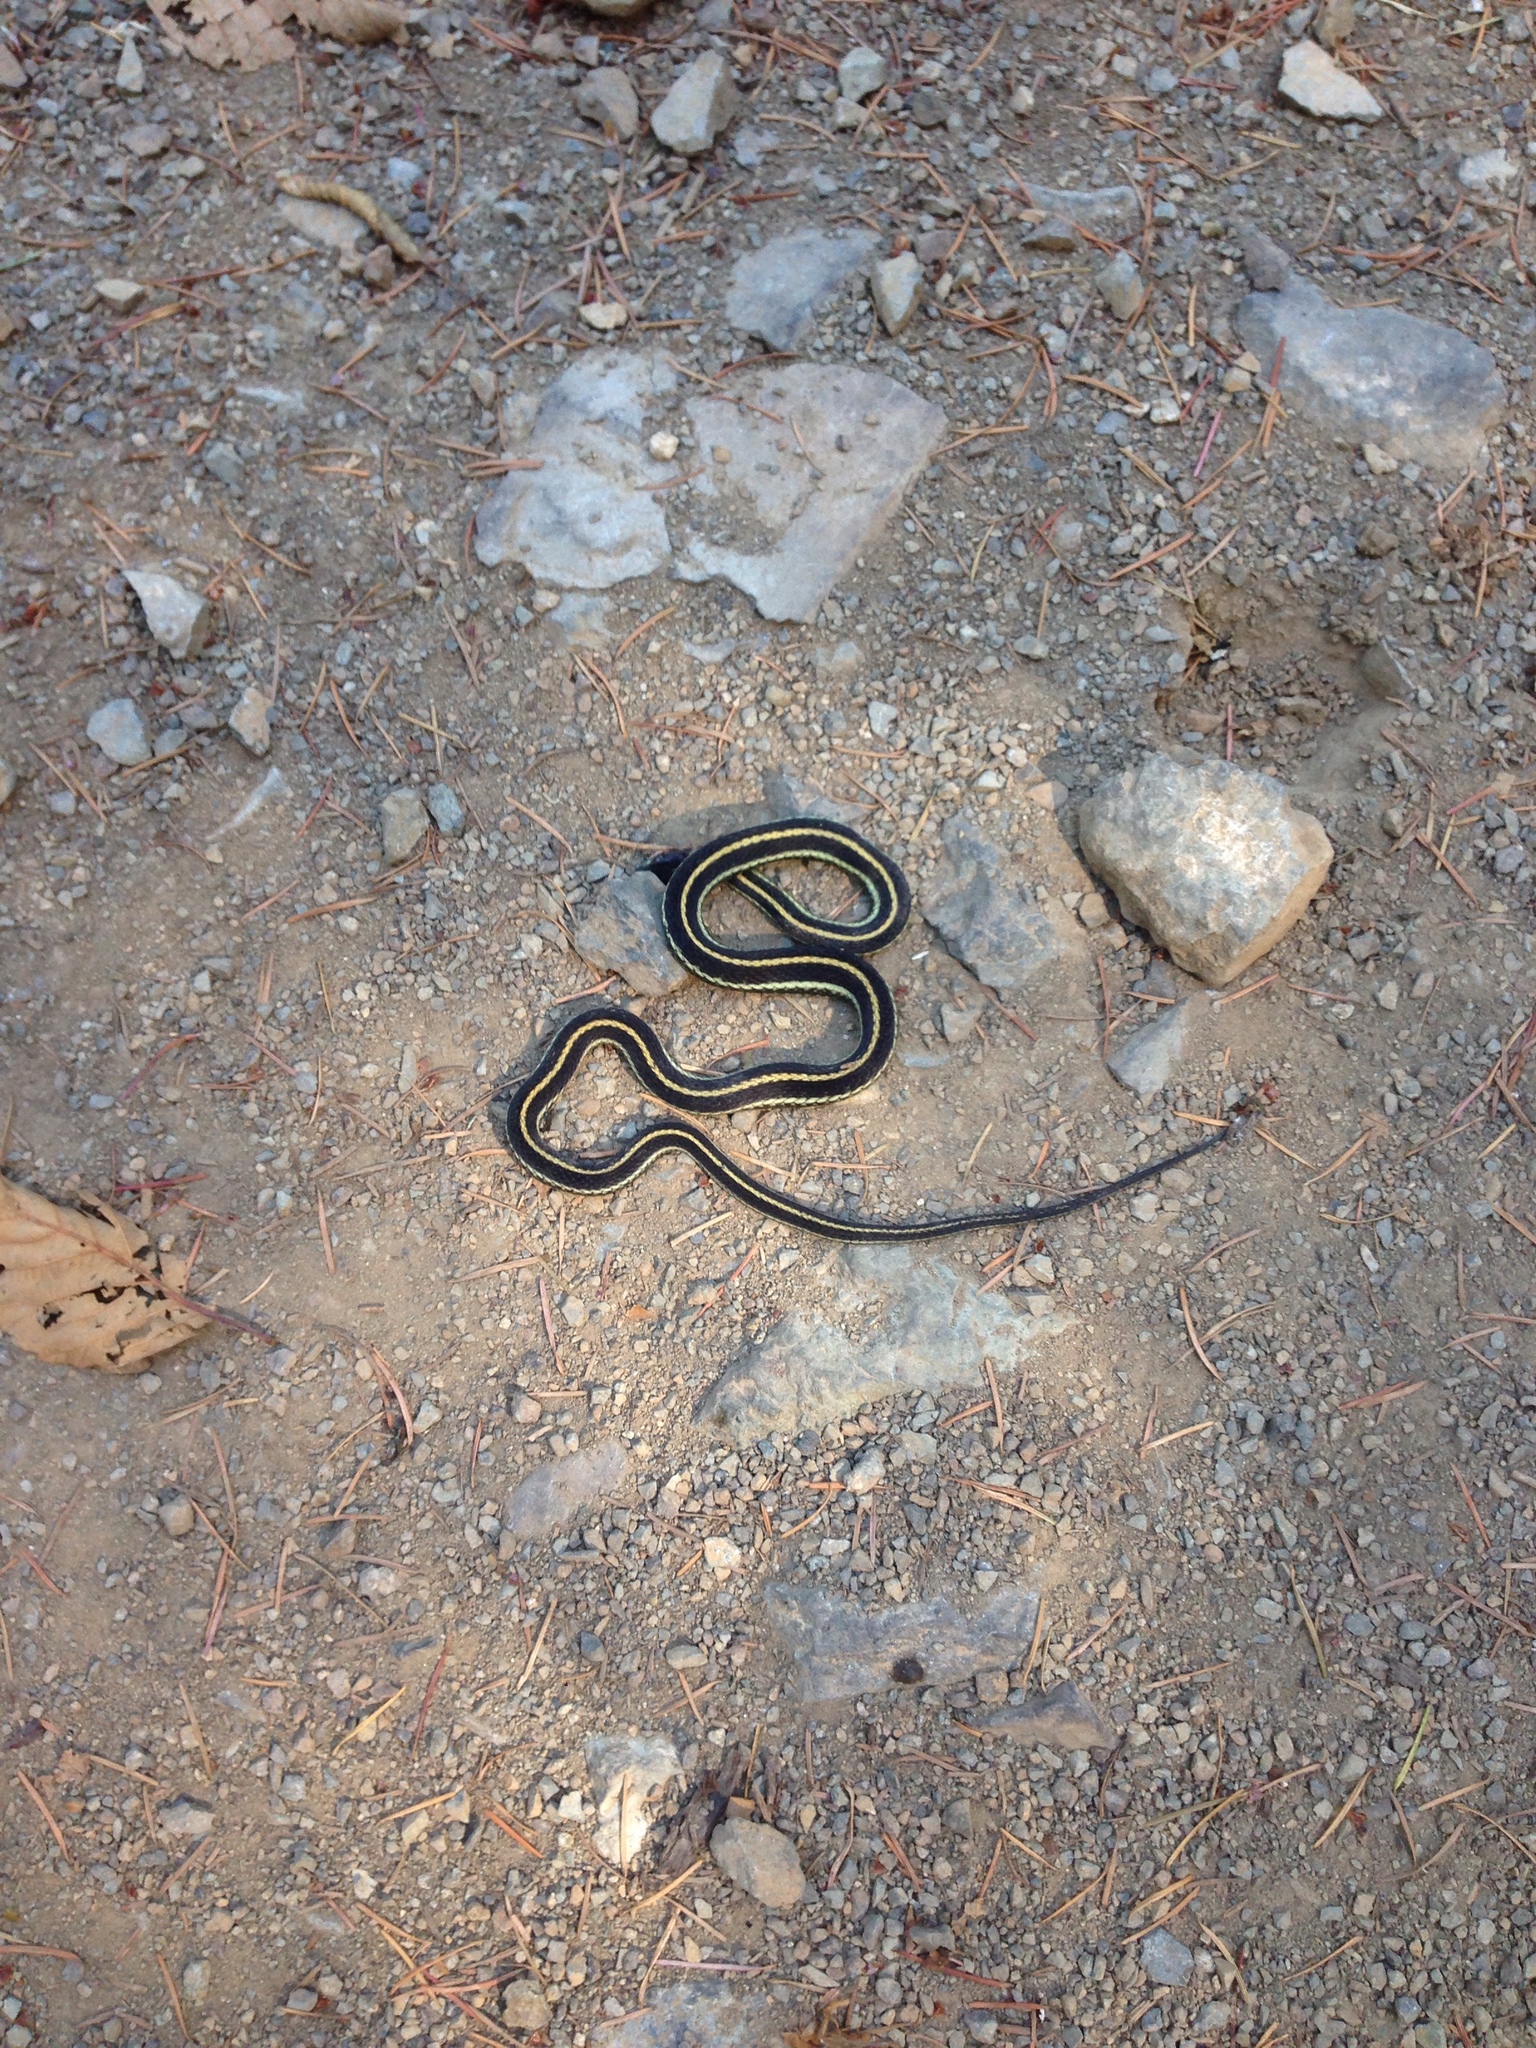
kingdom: Animalia
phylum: Chordata
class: Squamata
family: Colubridae
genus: Thamnophis
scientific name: Thamnophis sirtalis
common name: Common garter snake
